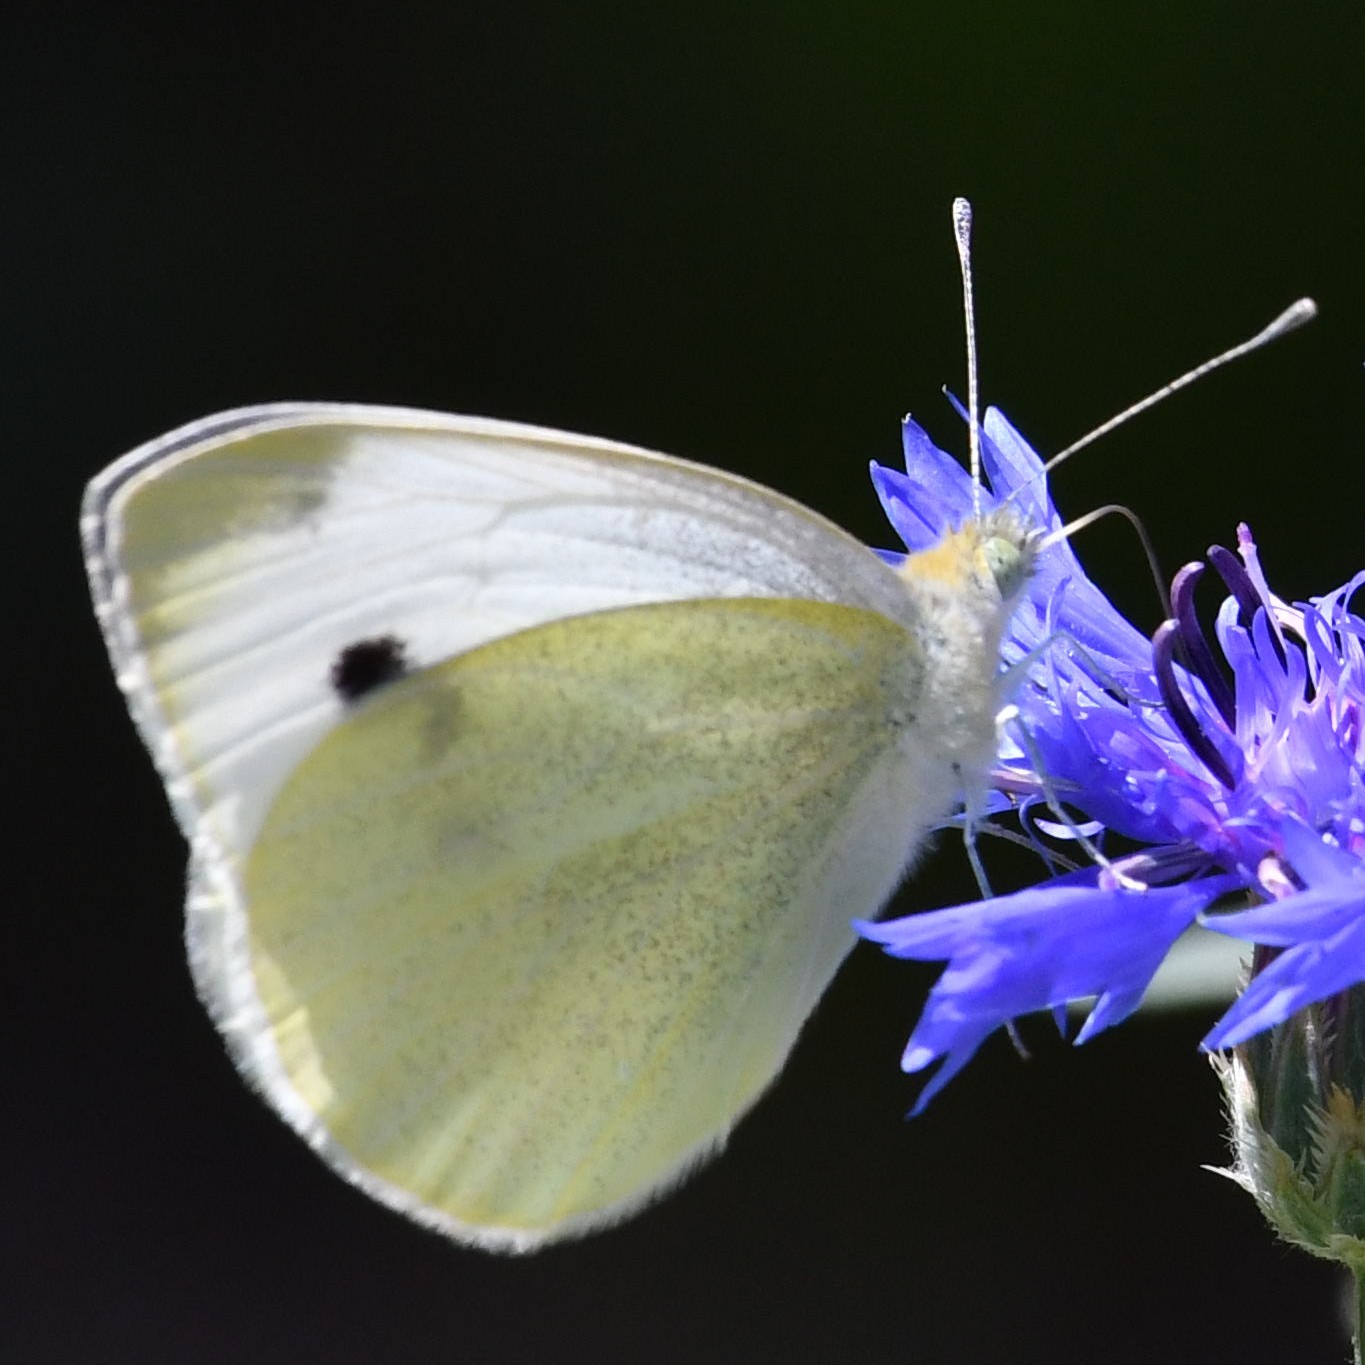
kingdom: Animalia
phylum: Arthropoda
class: Insecta
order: Lepidoptera
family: Pieridae
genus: Pieris
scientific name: Pieris rapae
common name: Small white
